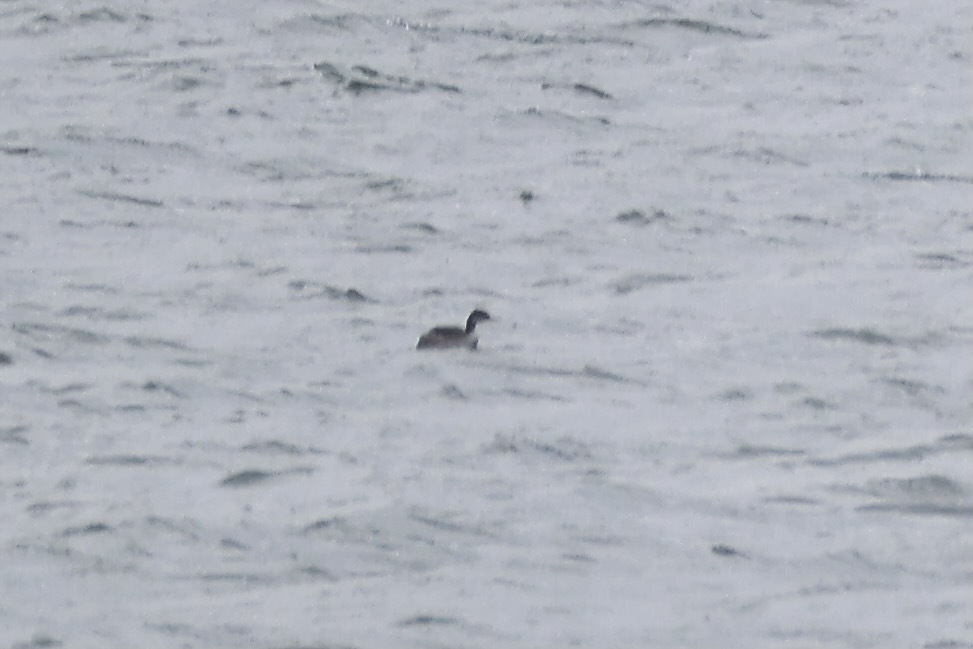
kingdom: Animalia
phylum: Chordata
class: Aves
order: Podicipediformes
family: Podicipedidae
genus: Podiceps
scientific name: Podiceps auritus
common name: Horned grebe
